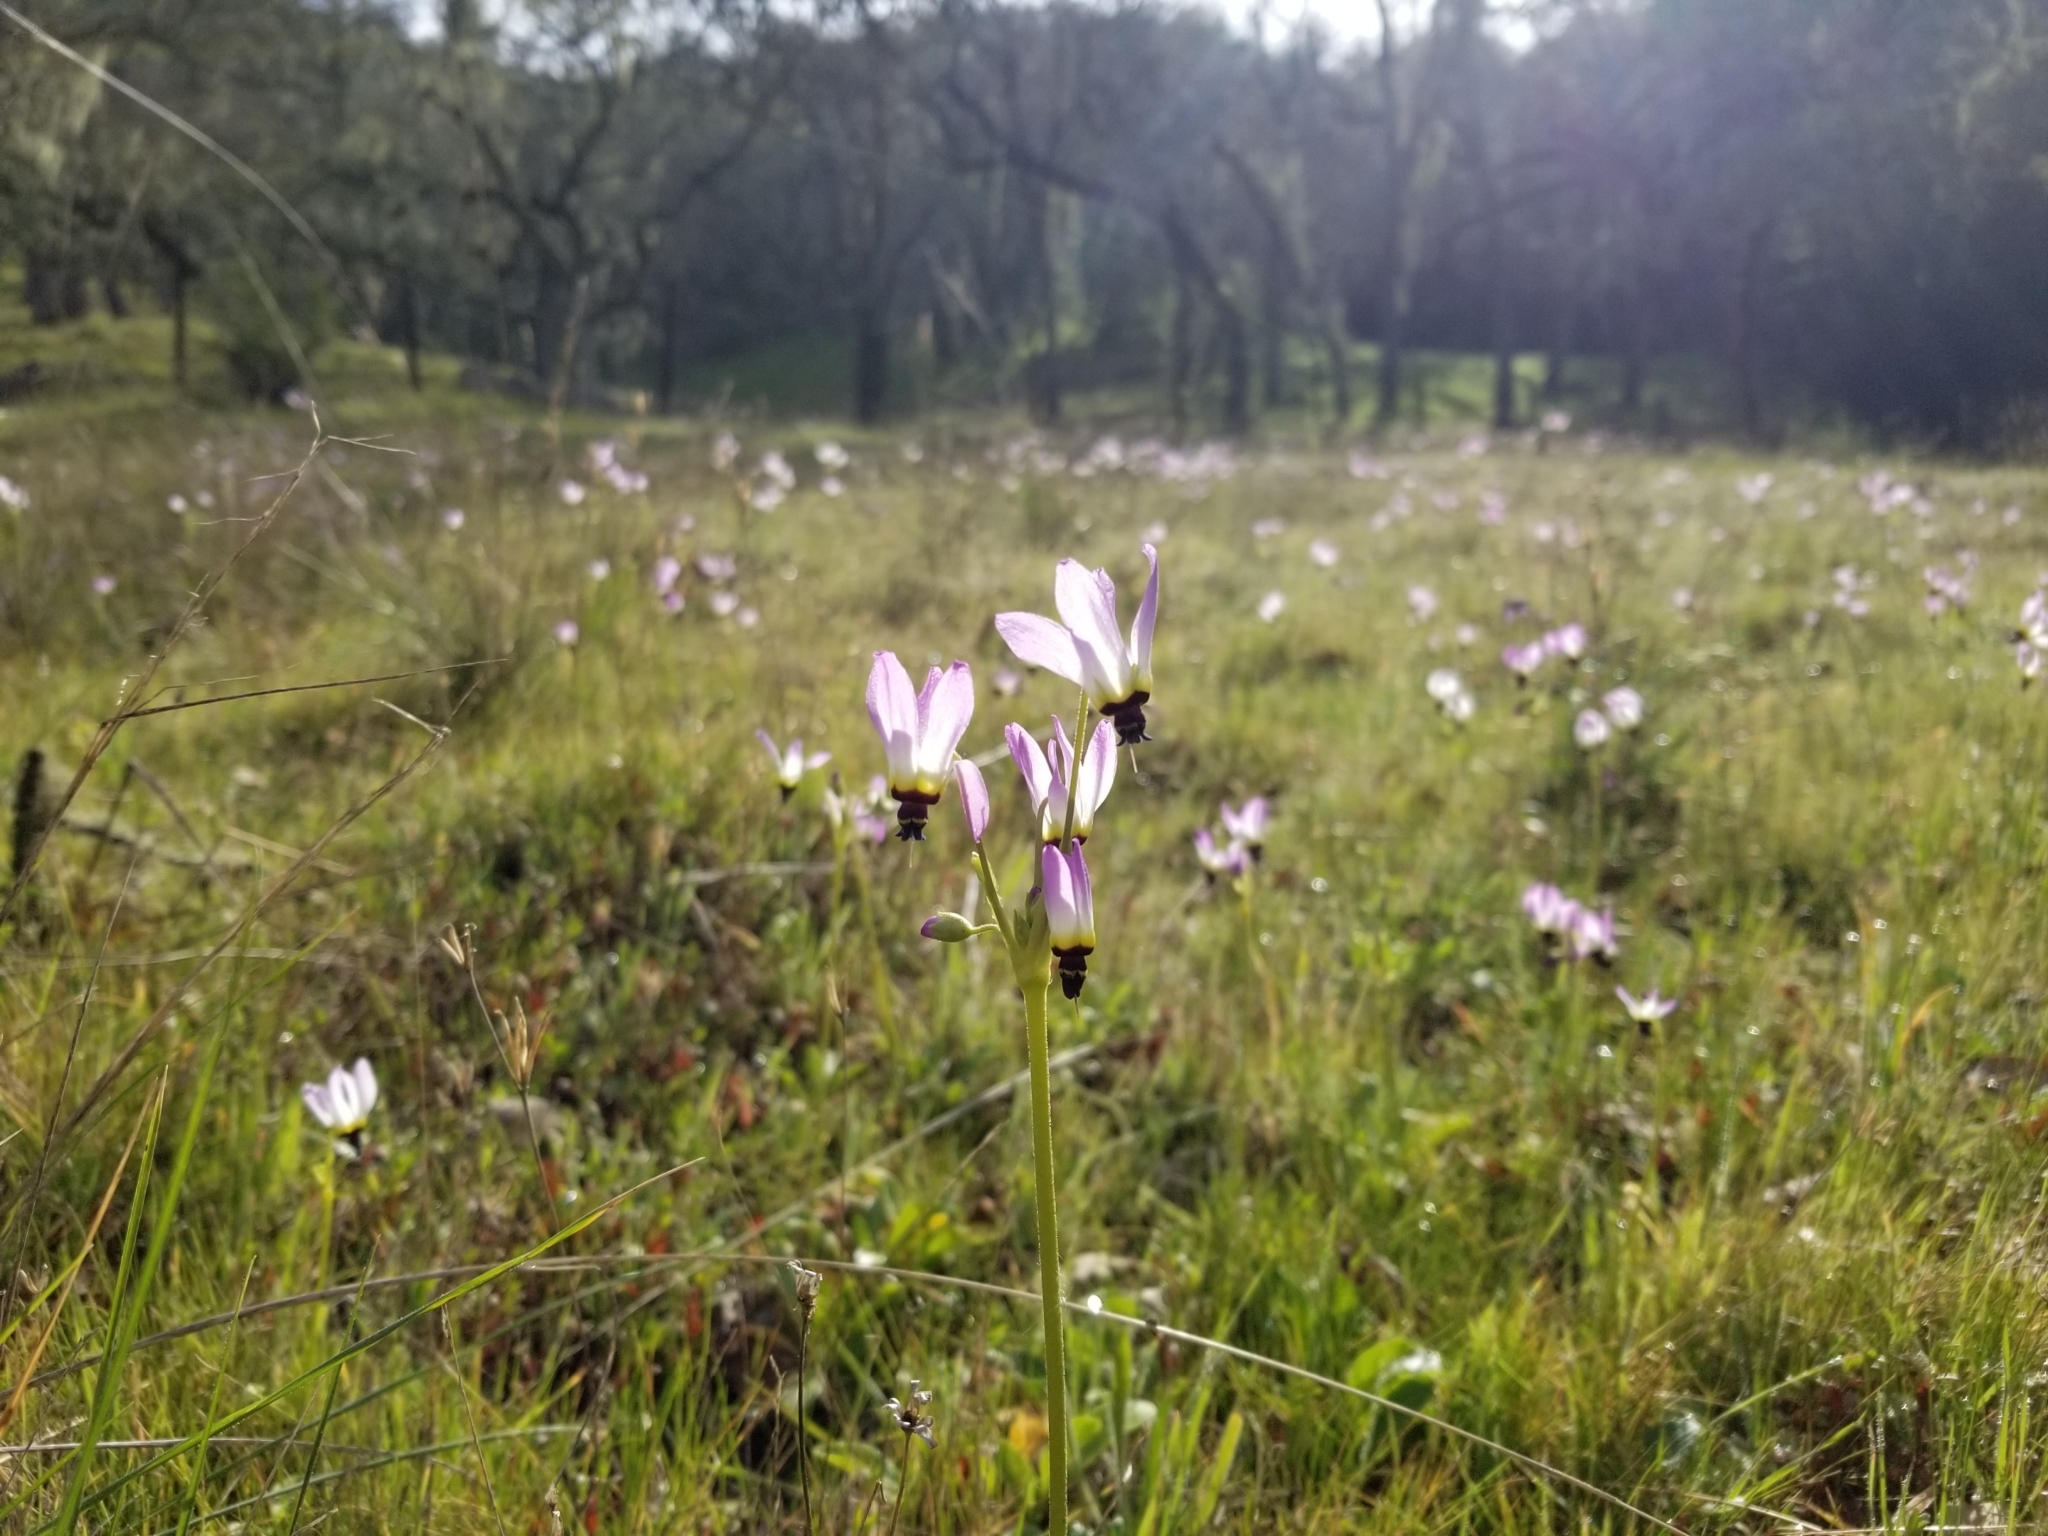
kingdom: Plantae
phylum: Tracheophyta
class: Magnoliopsida
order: Ericales
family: Primulaceae
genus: Dodecatheon
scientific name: Dodecatheon clevelandii
